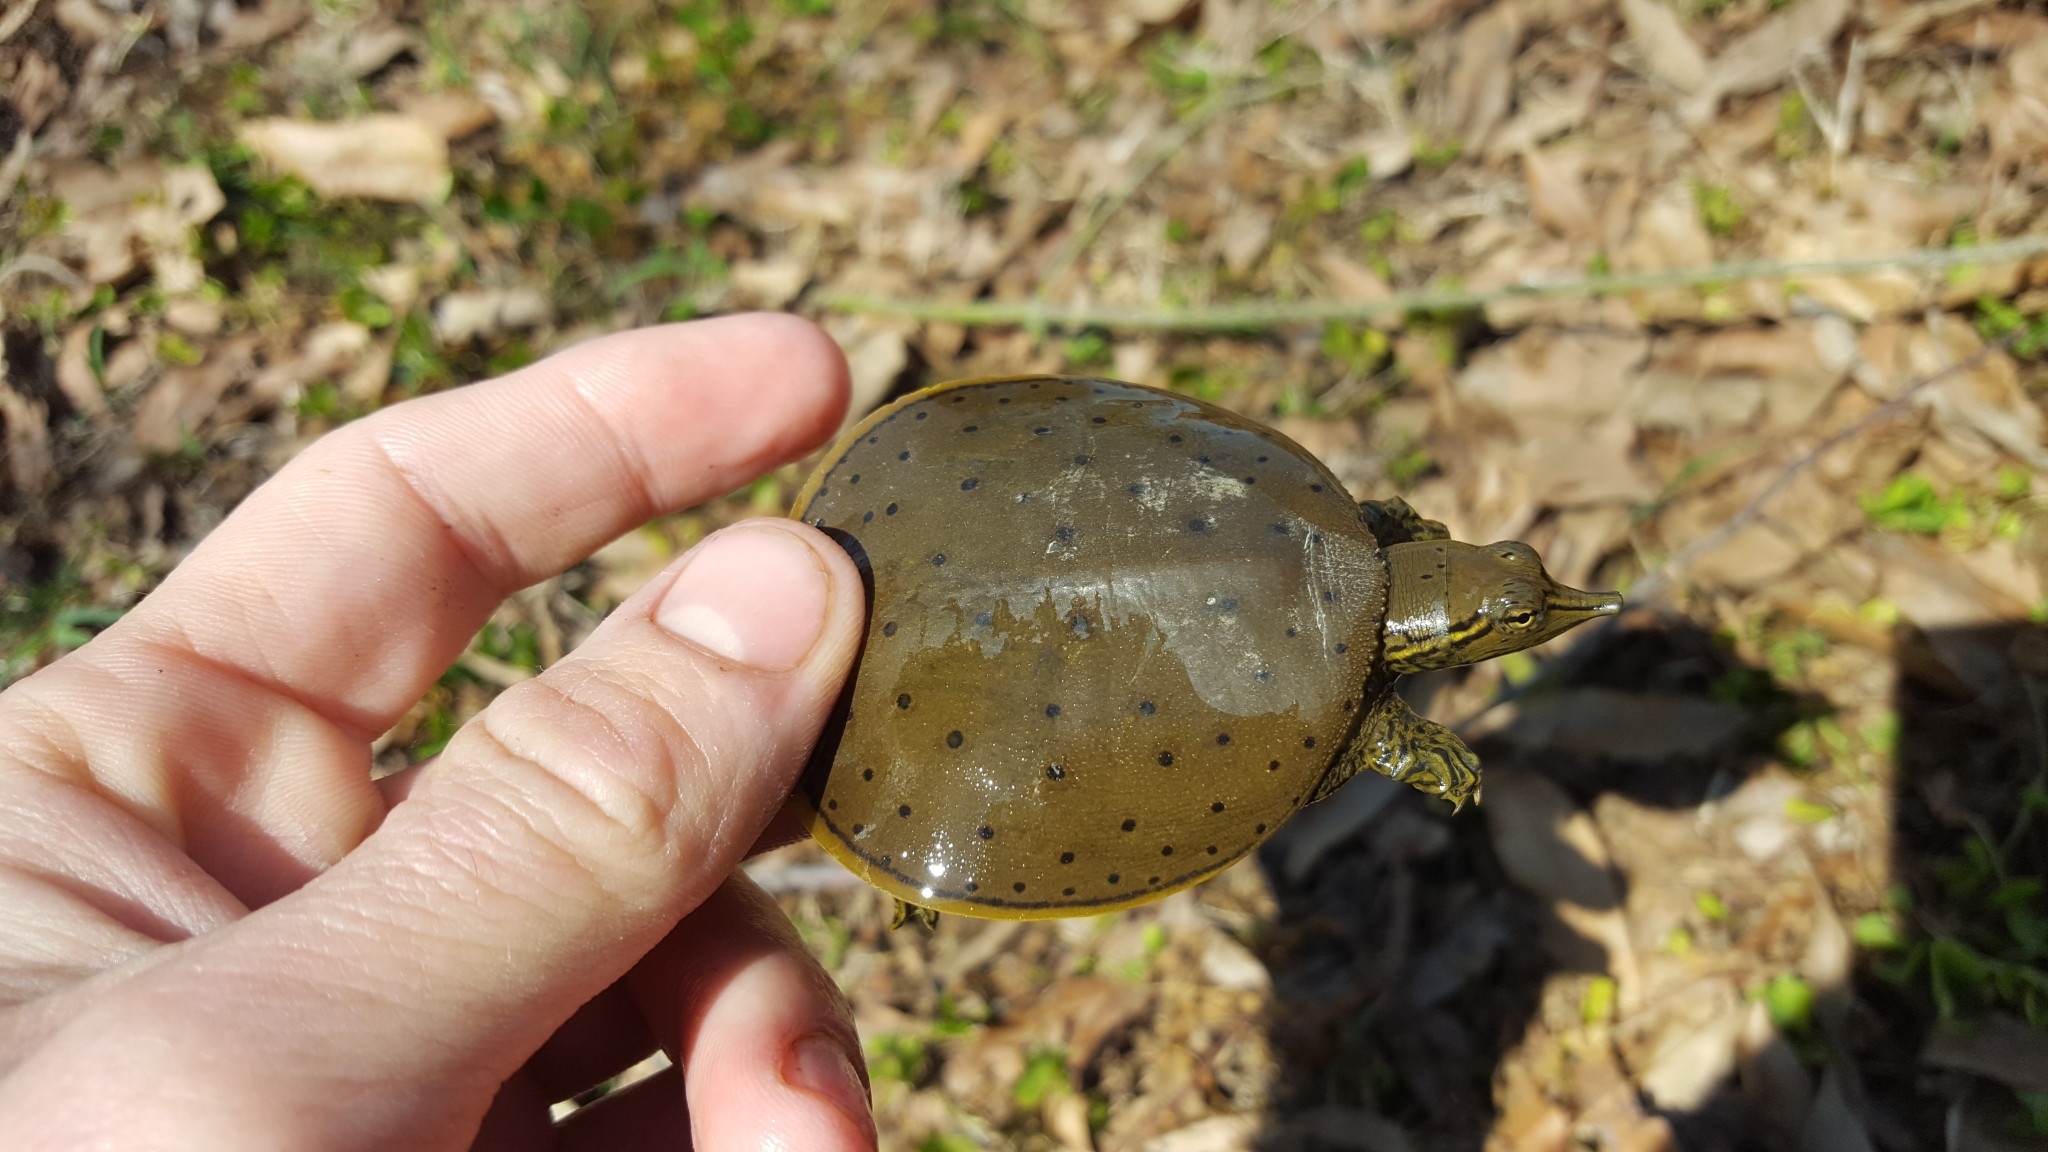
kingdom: Animalia
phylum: Chordata
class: Testudines
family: Trionychidae
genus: Apalone
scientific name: Apalone spinifera
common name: Spiny softshell turtle
